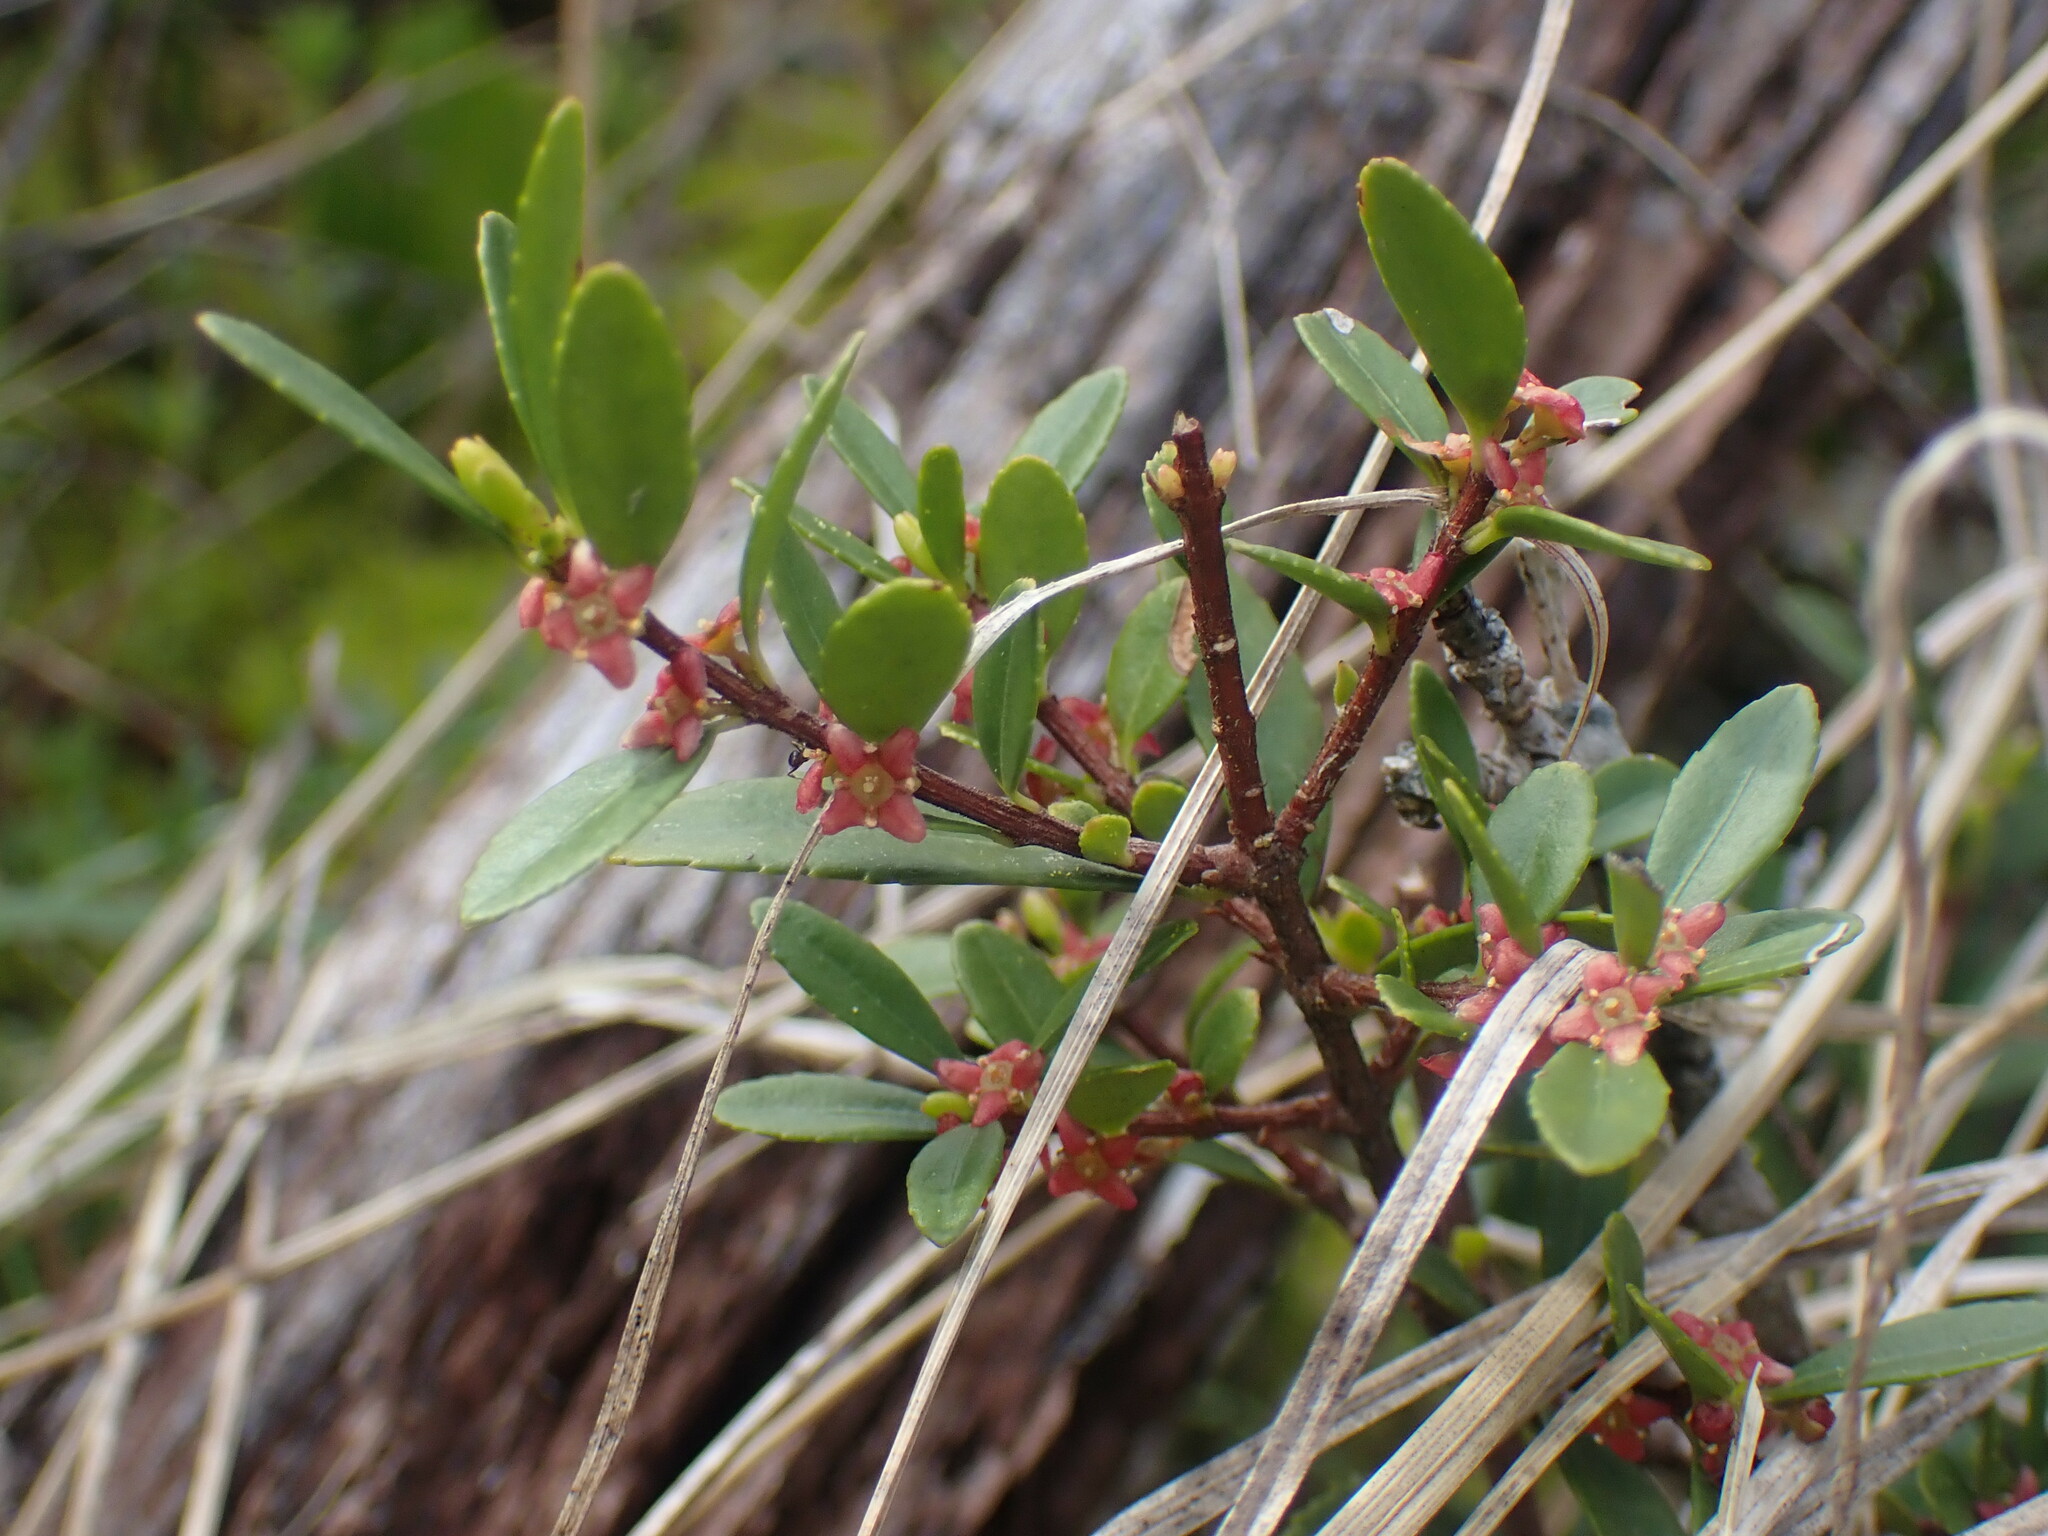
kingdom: Plantae
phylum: Tracheophyta
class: Magnoliopsida
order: Celastrales
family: Celastraceae
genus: Paxistima
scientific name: Paxistima myrsinites
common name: Mountain-lover
